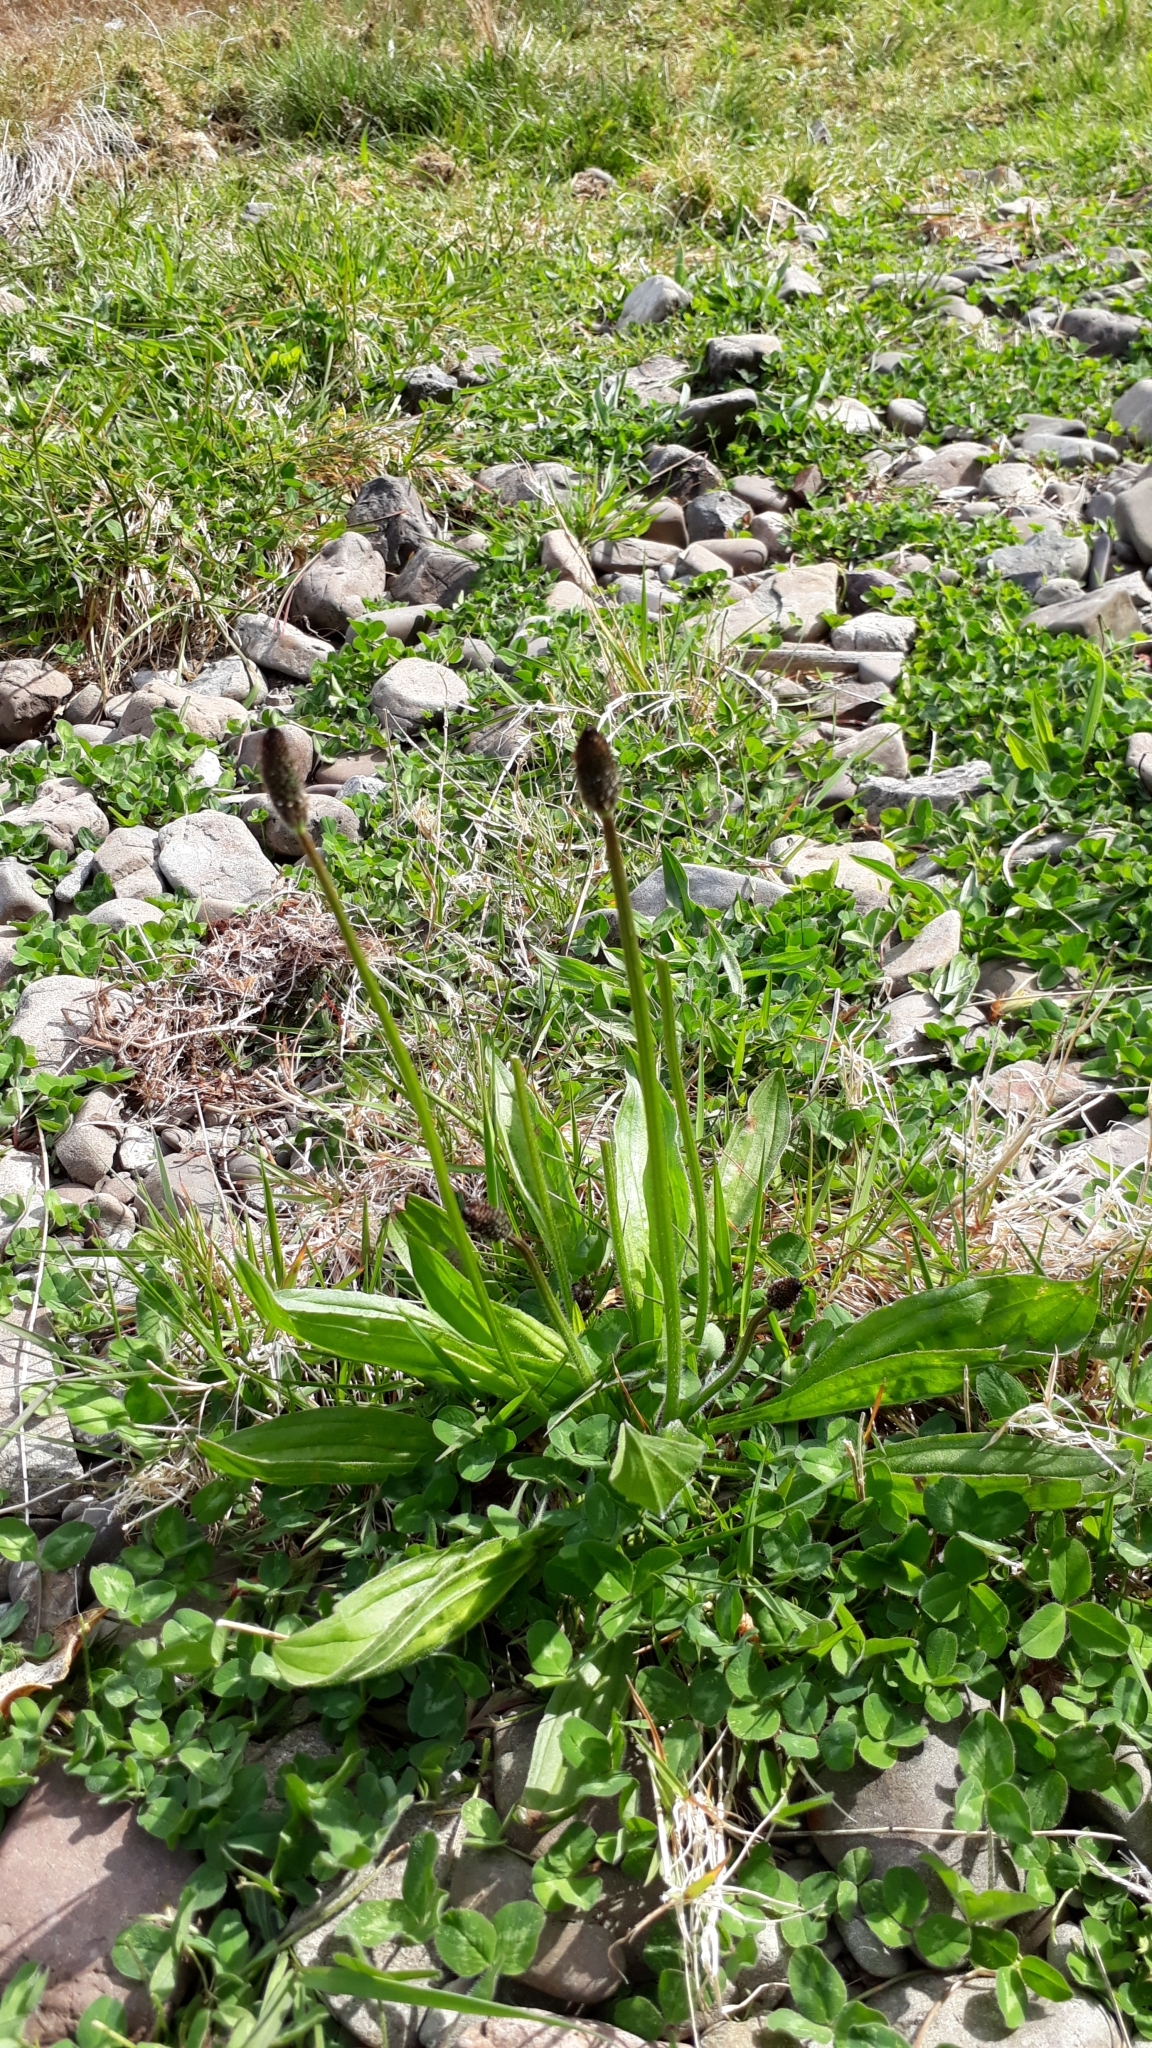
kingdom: Plantae
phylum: Tracheophyta
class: Magnoliopsida
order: Lamiales
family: Plantaginaceae
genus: Plantago
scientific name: Plantago lanceolata
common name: Ribwort plantain
